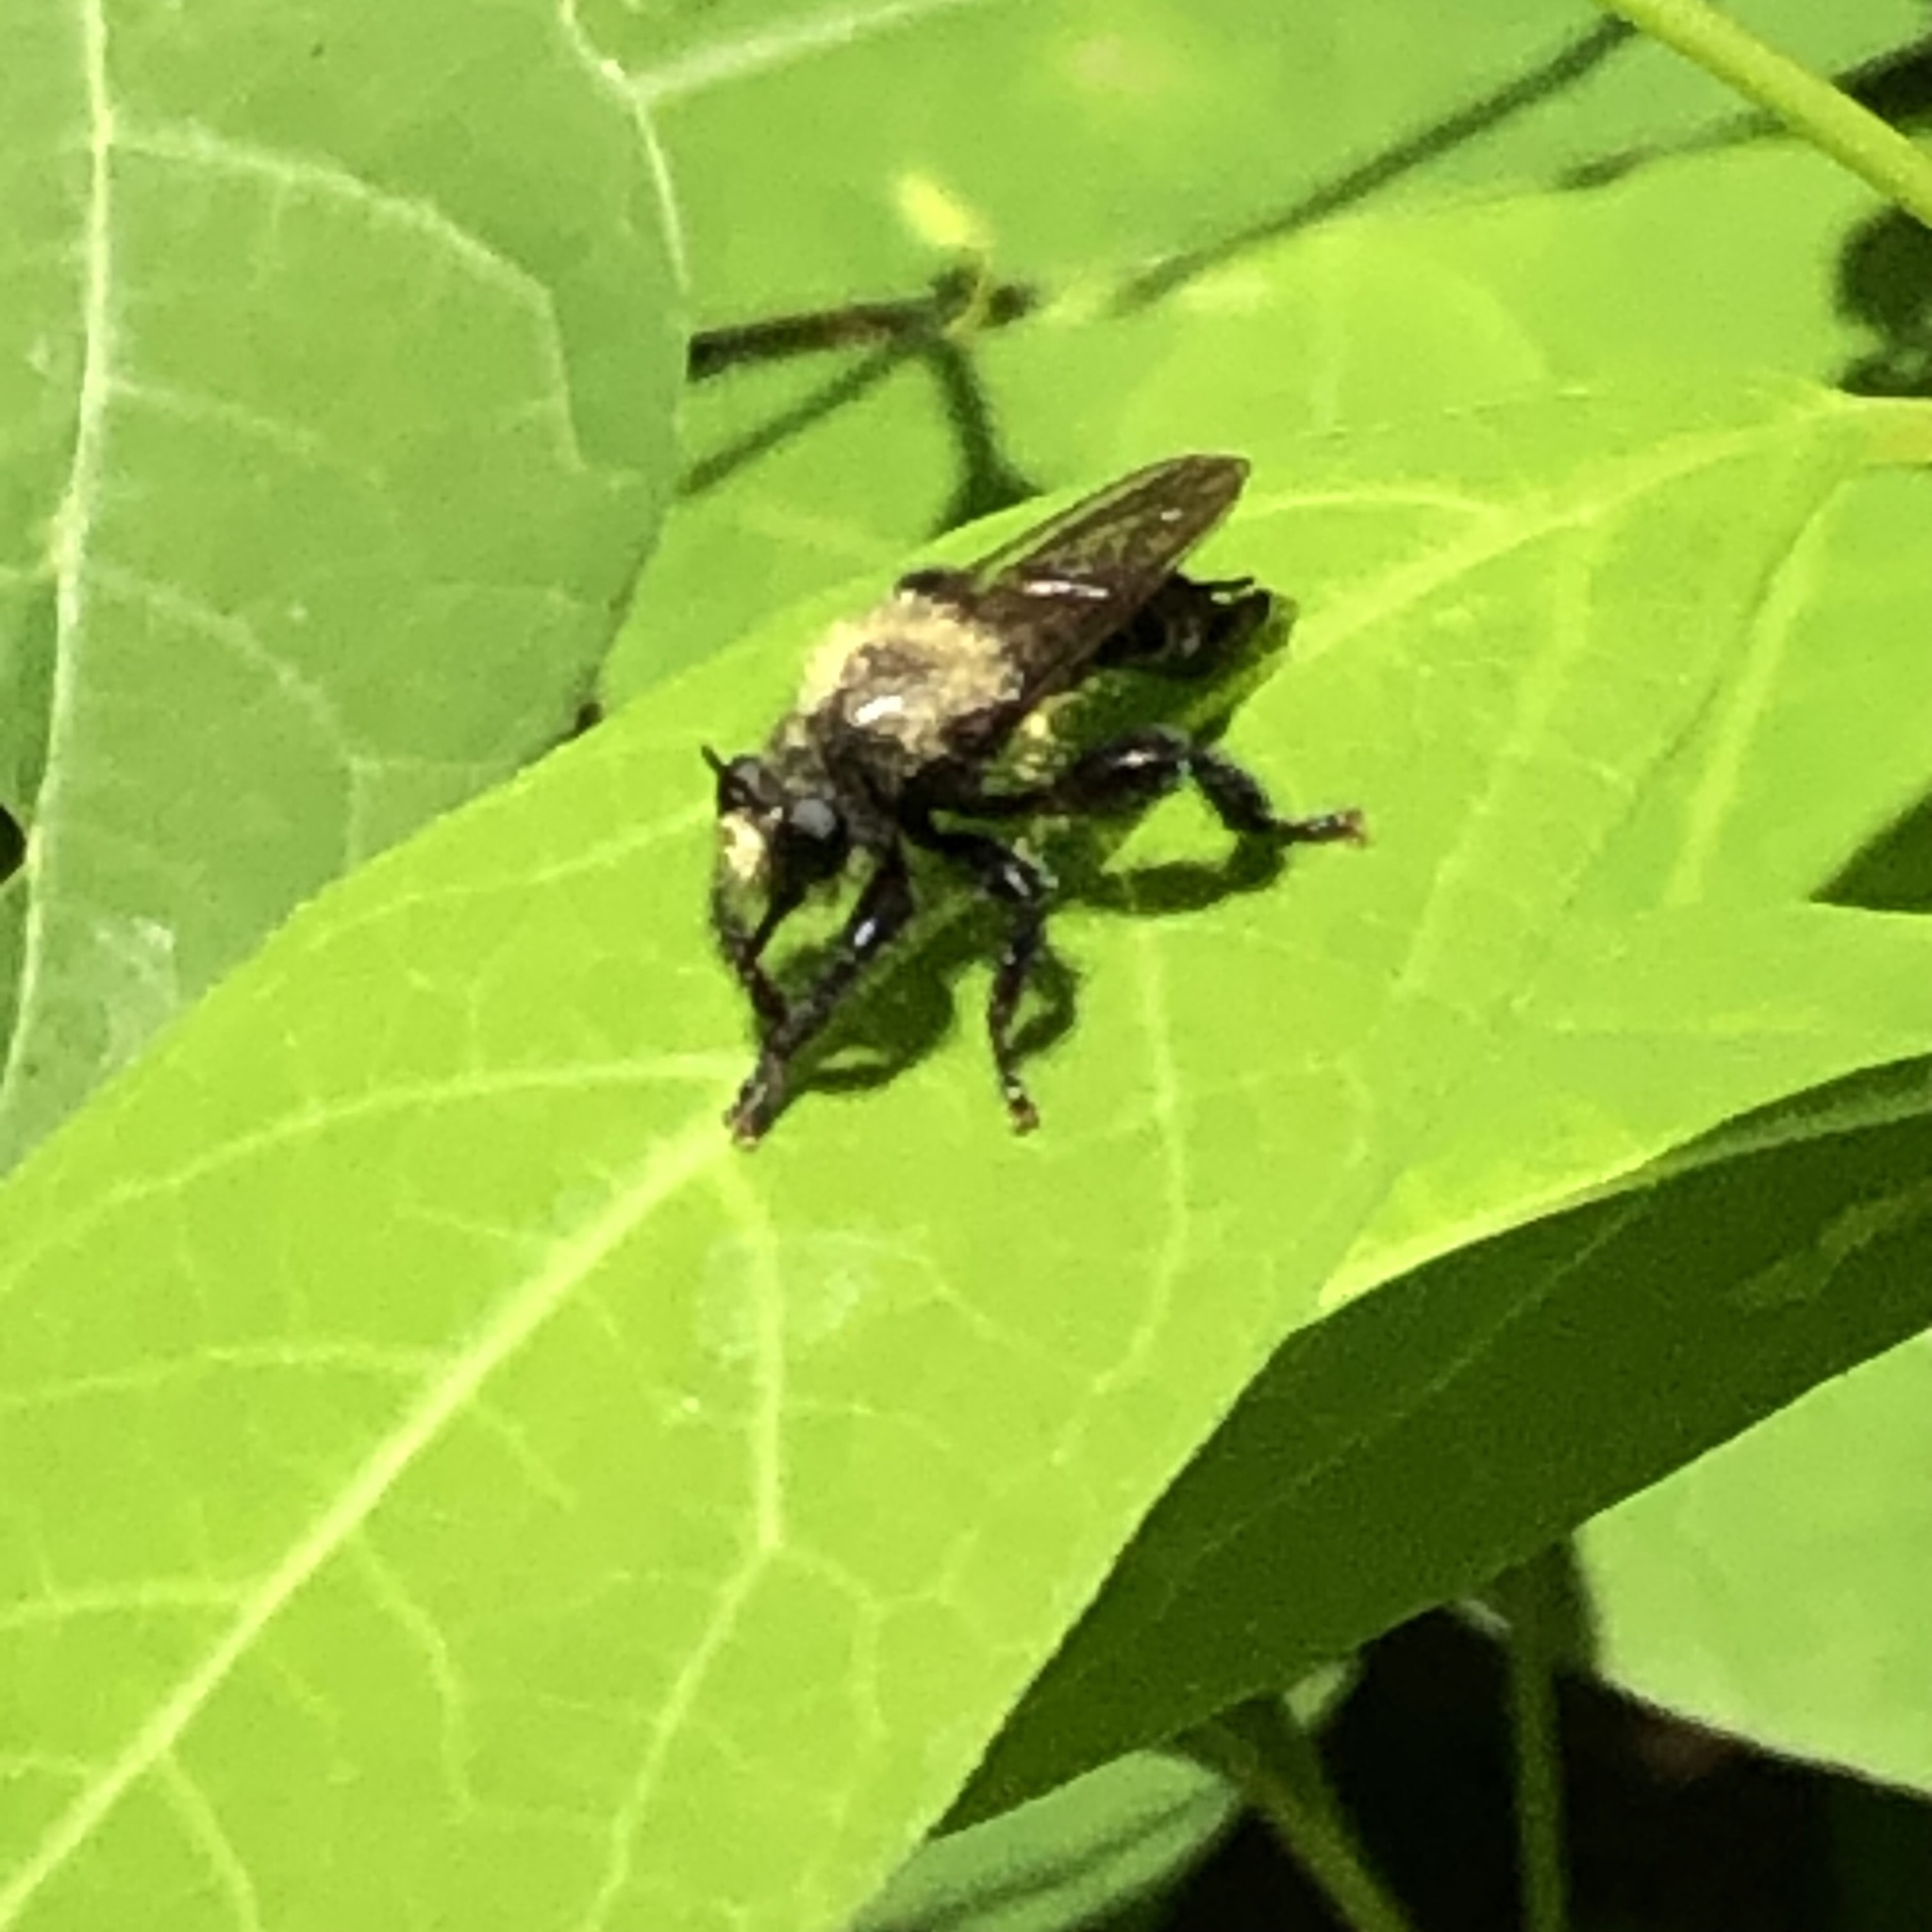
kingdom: Animalia
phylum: Arthropoda
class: Insecta
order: Diptera
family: Asilidae
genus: Laphria
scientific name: Laphria flavicollis
